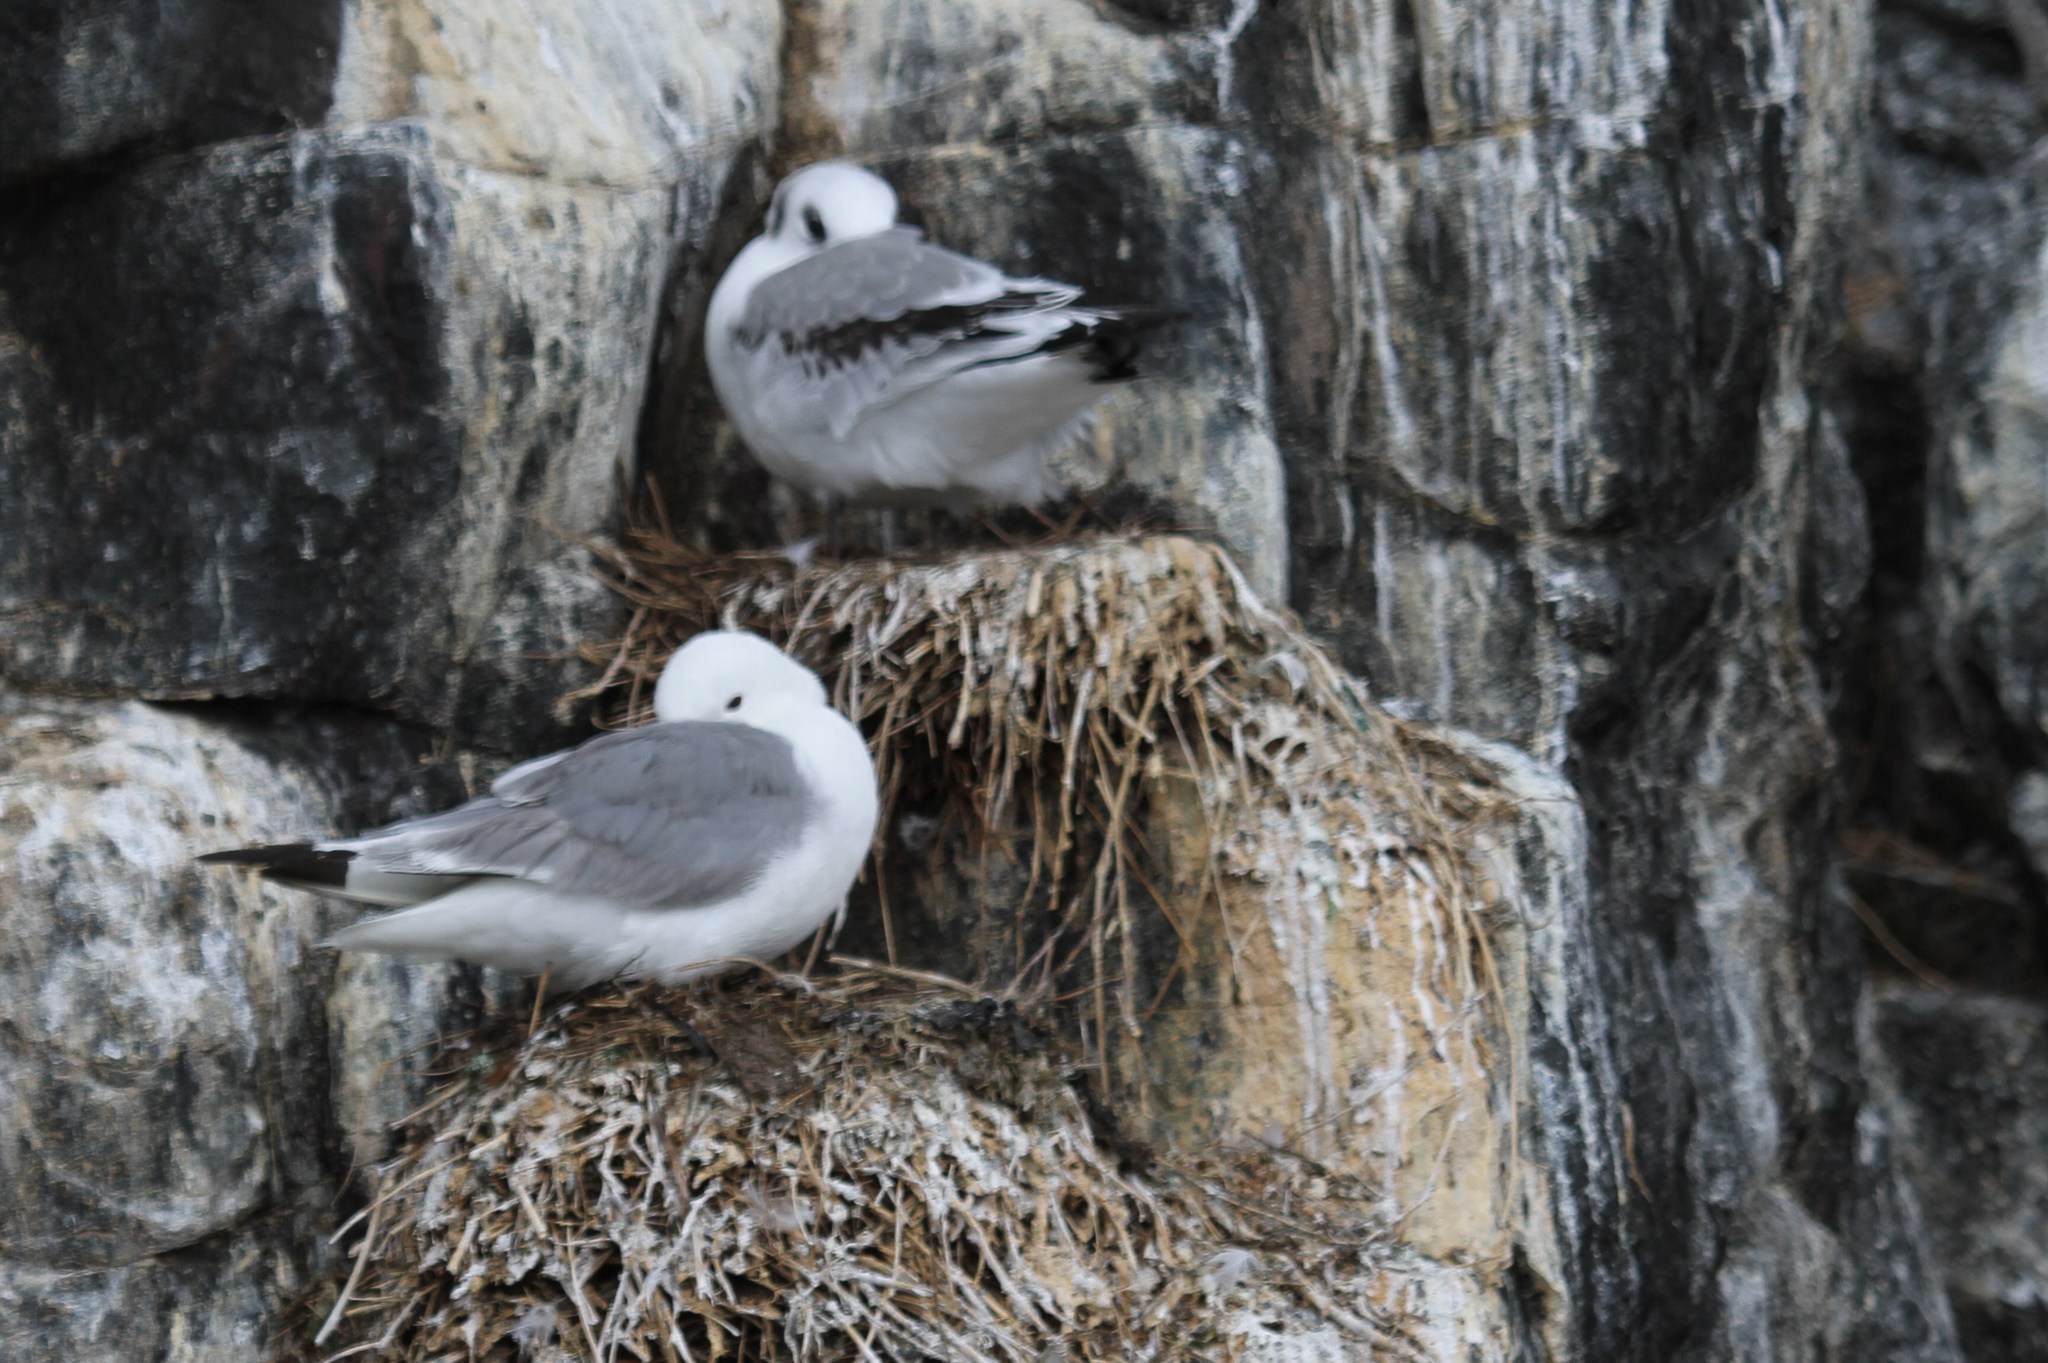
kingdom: Animalia
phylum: Chordata
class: Aves
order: Charadriiformes
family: Laridae
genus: Rissa
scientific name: Rissa tridactyla
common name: Black-legged kittiwake
